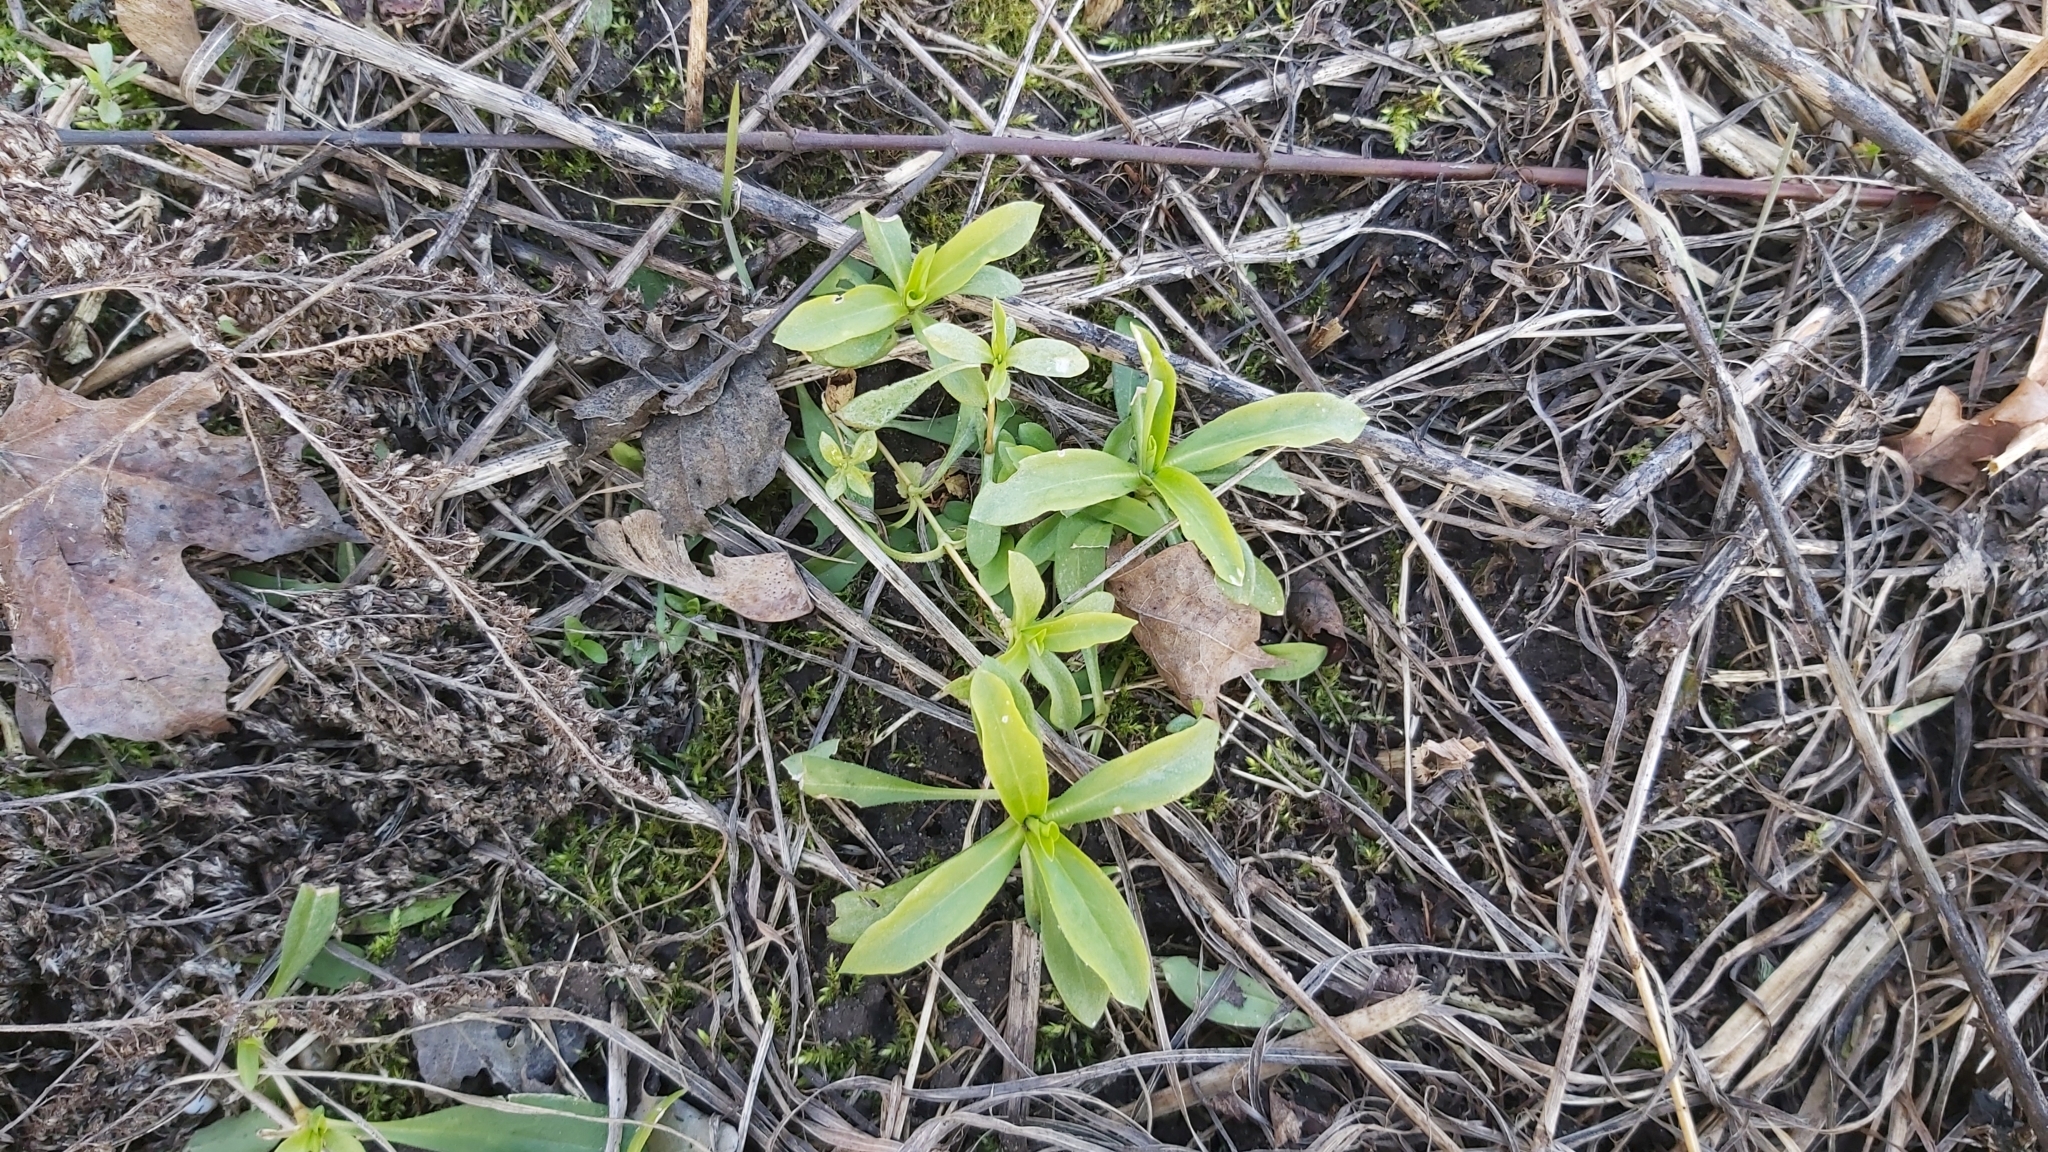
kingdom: Plantae
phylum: Tracheophyta
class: Magnoliopsida
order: Caryophyllales
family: Caryophyllaceae
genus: Saponaria
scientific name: Saponaria officinalis
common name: Soapwort
